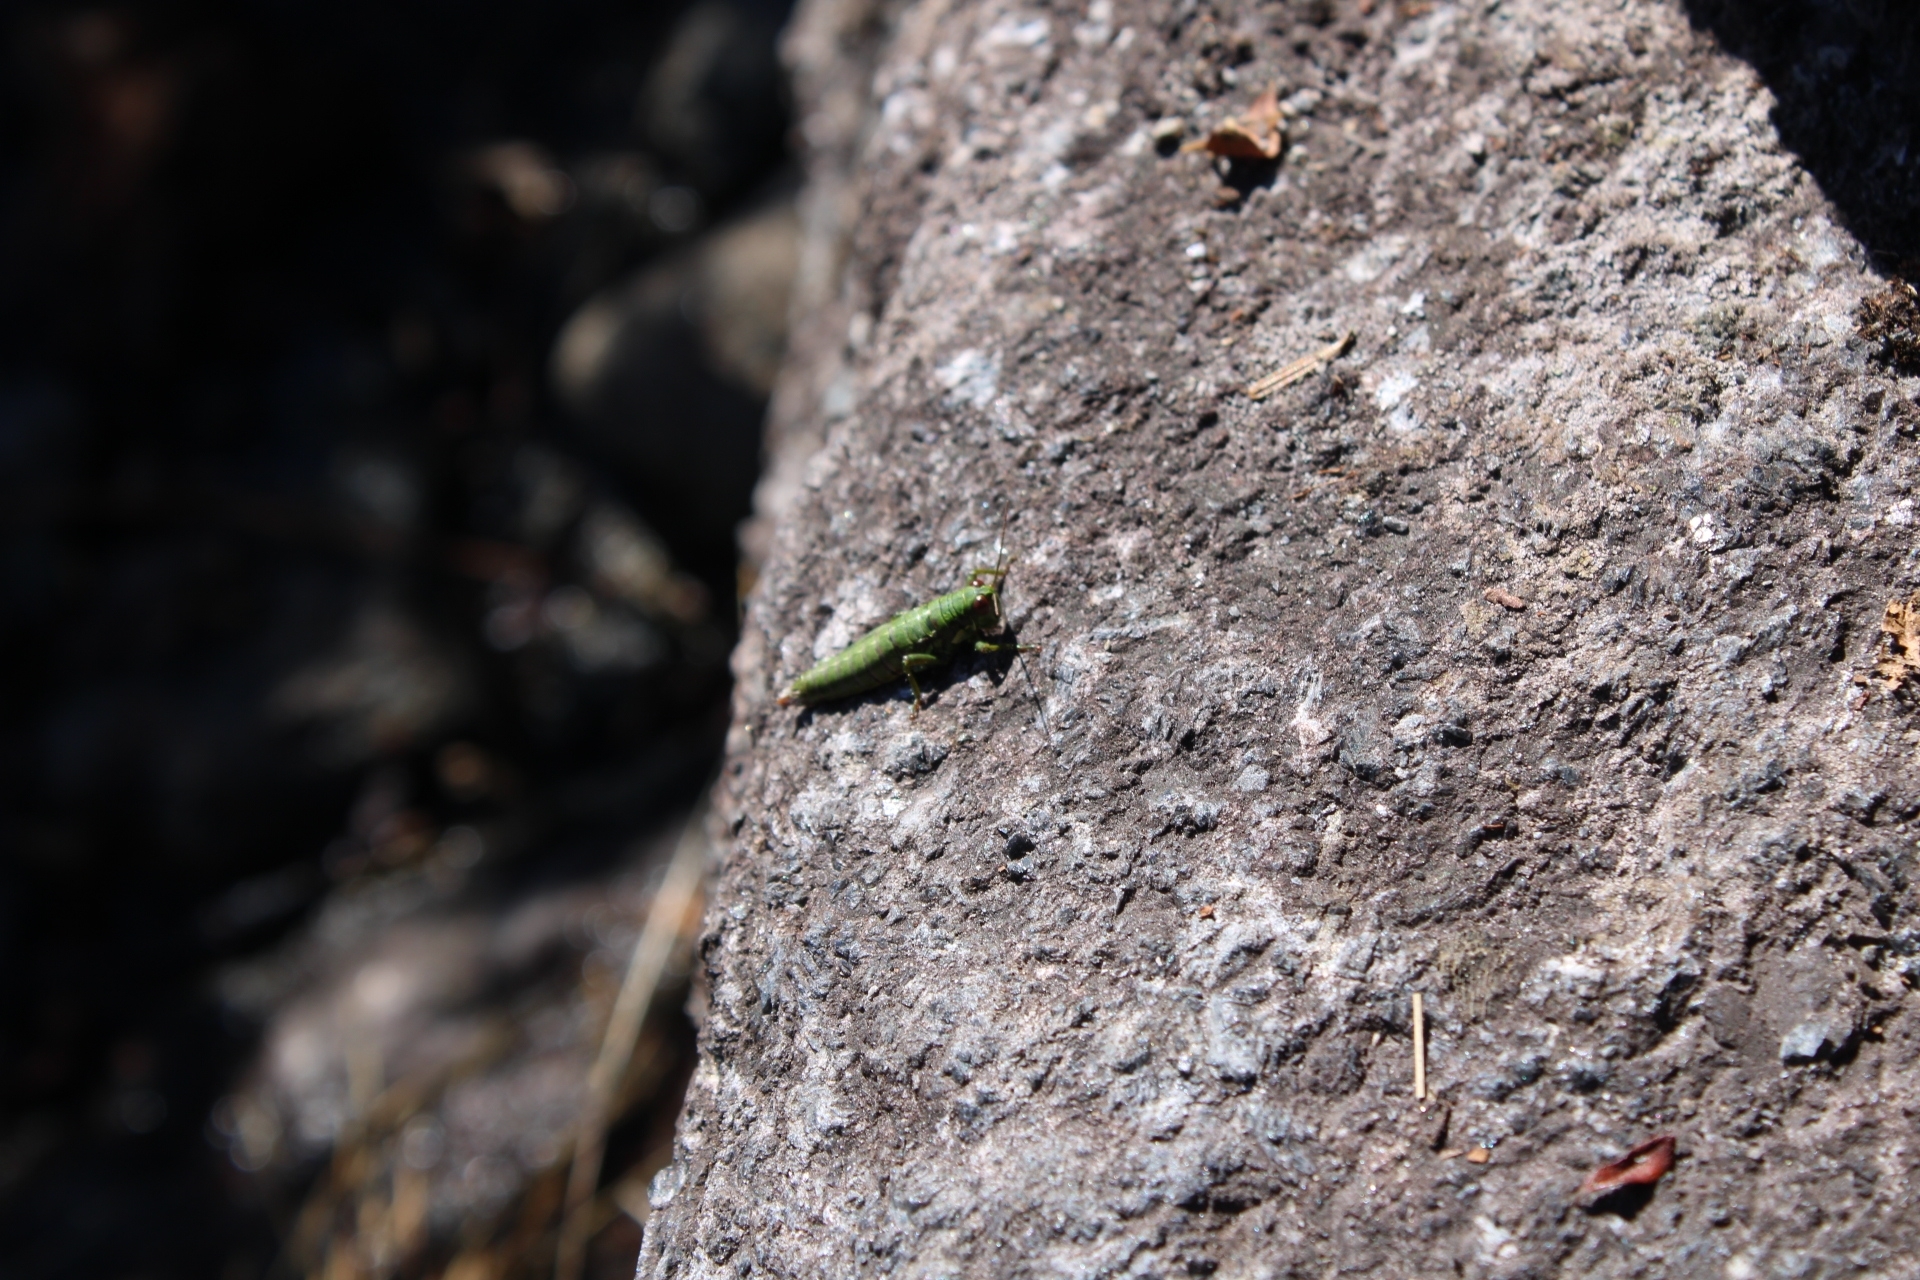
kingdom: Animalia
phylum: Arthropoda
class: Insecta
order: Orthoptera
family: Acrididae
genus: Booneacris
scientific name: Booneacris glacialis
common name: Wingless mountain grasshopper
